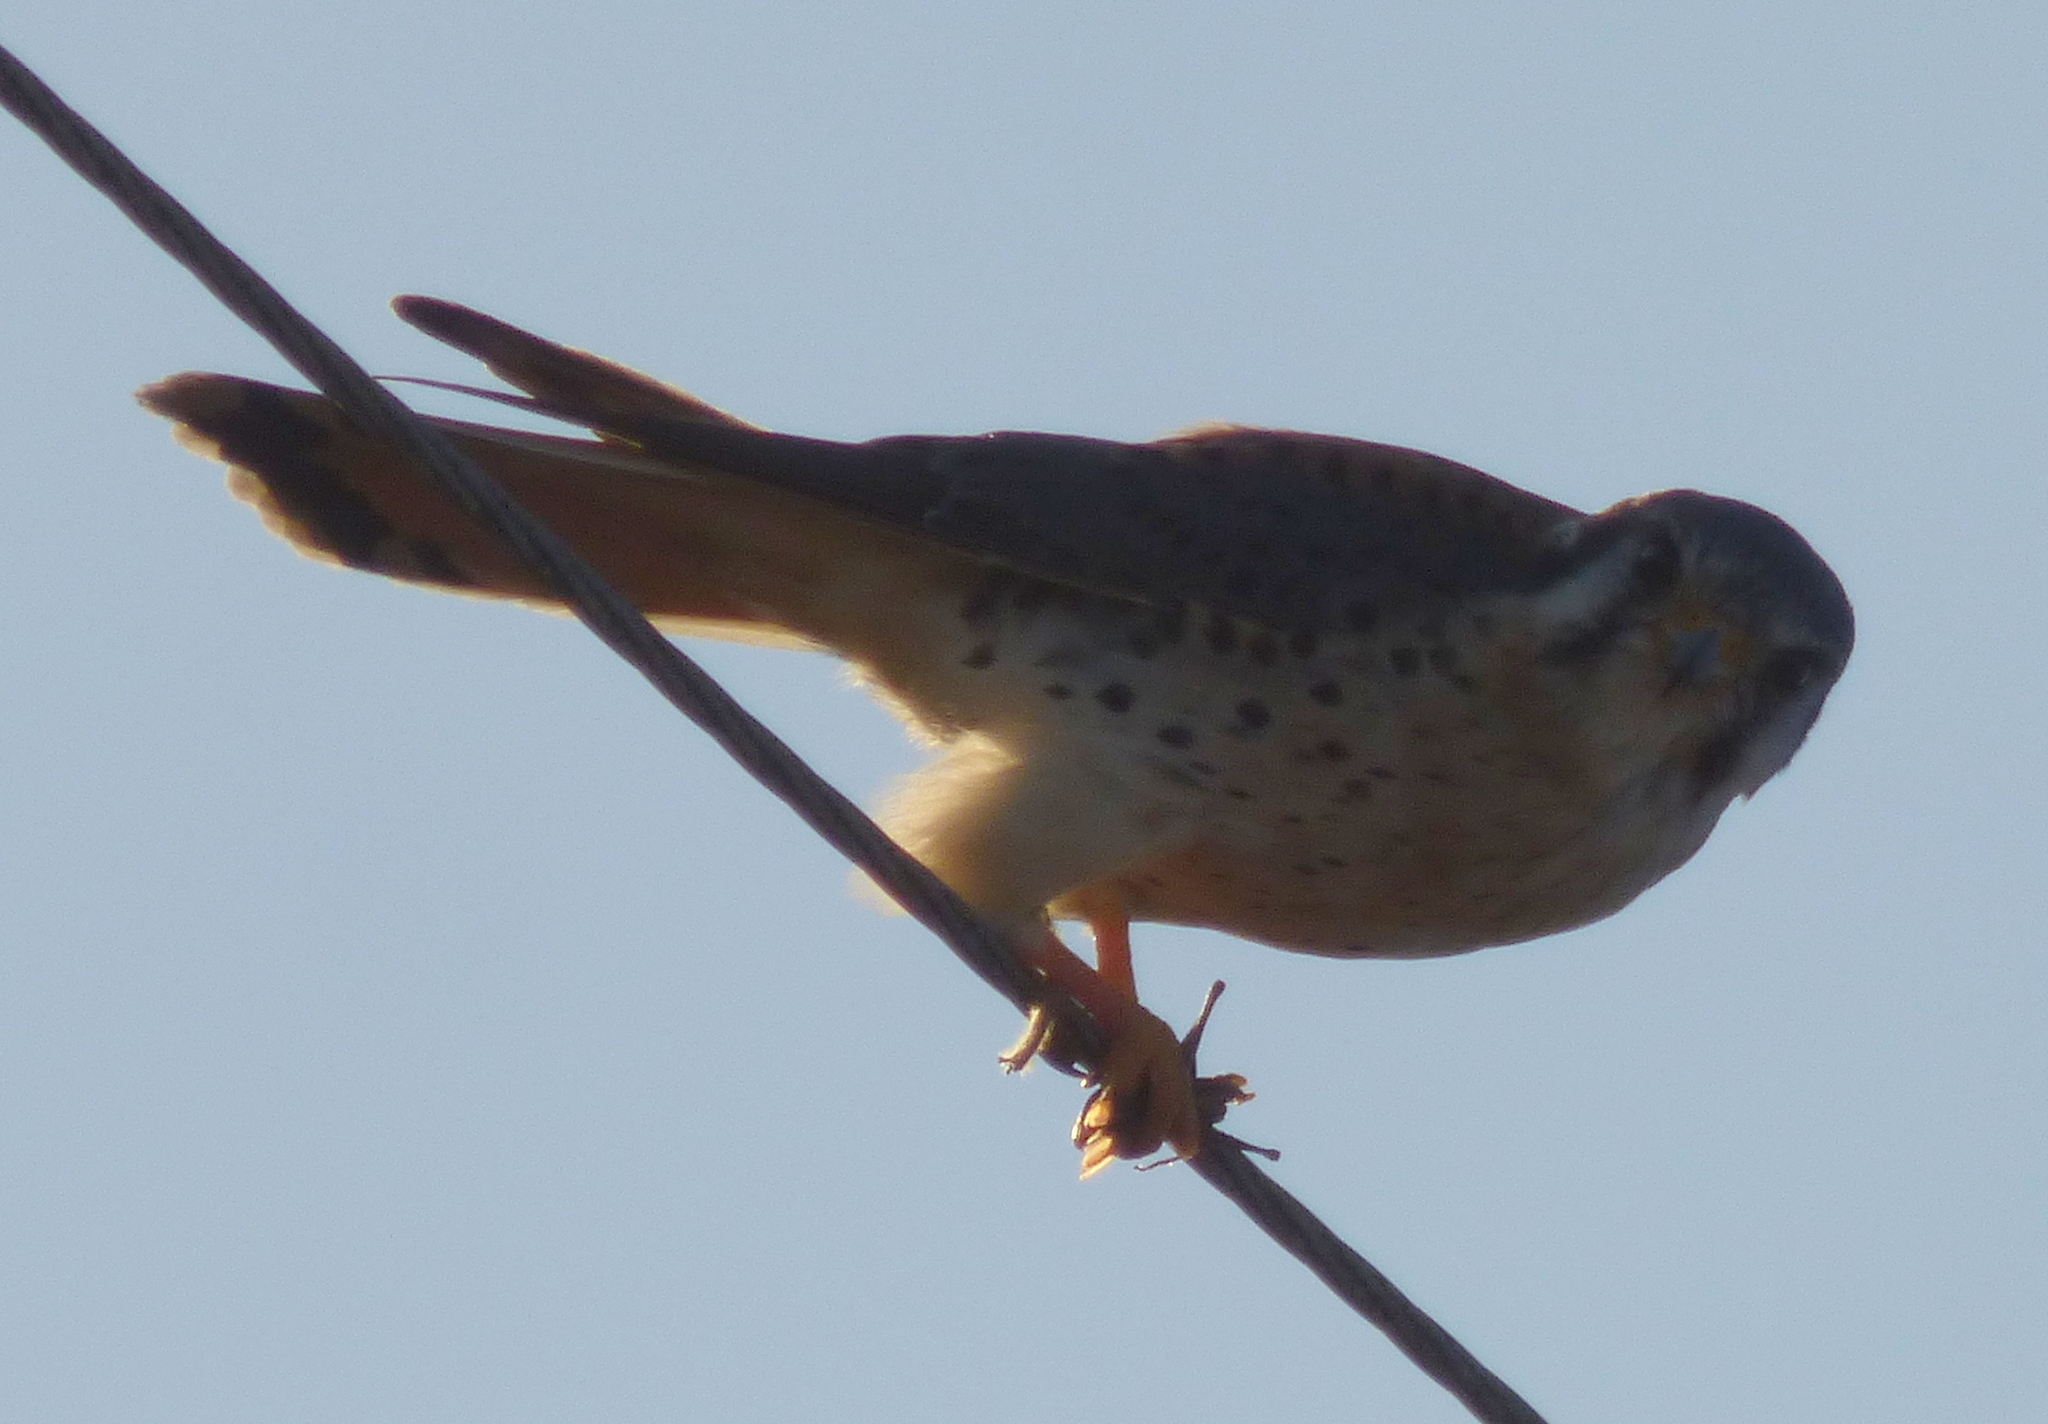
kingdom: Animalia
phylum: Chordata
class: Aves
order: Falconiformes
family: Falconidae
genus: Falco
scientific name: Falco sparverius
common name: American kestrel
